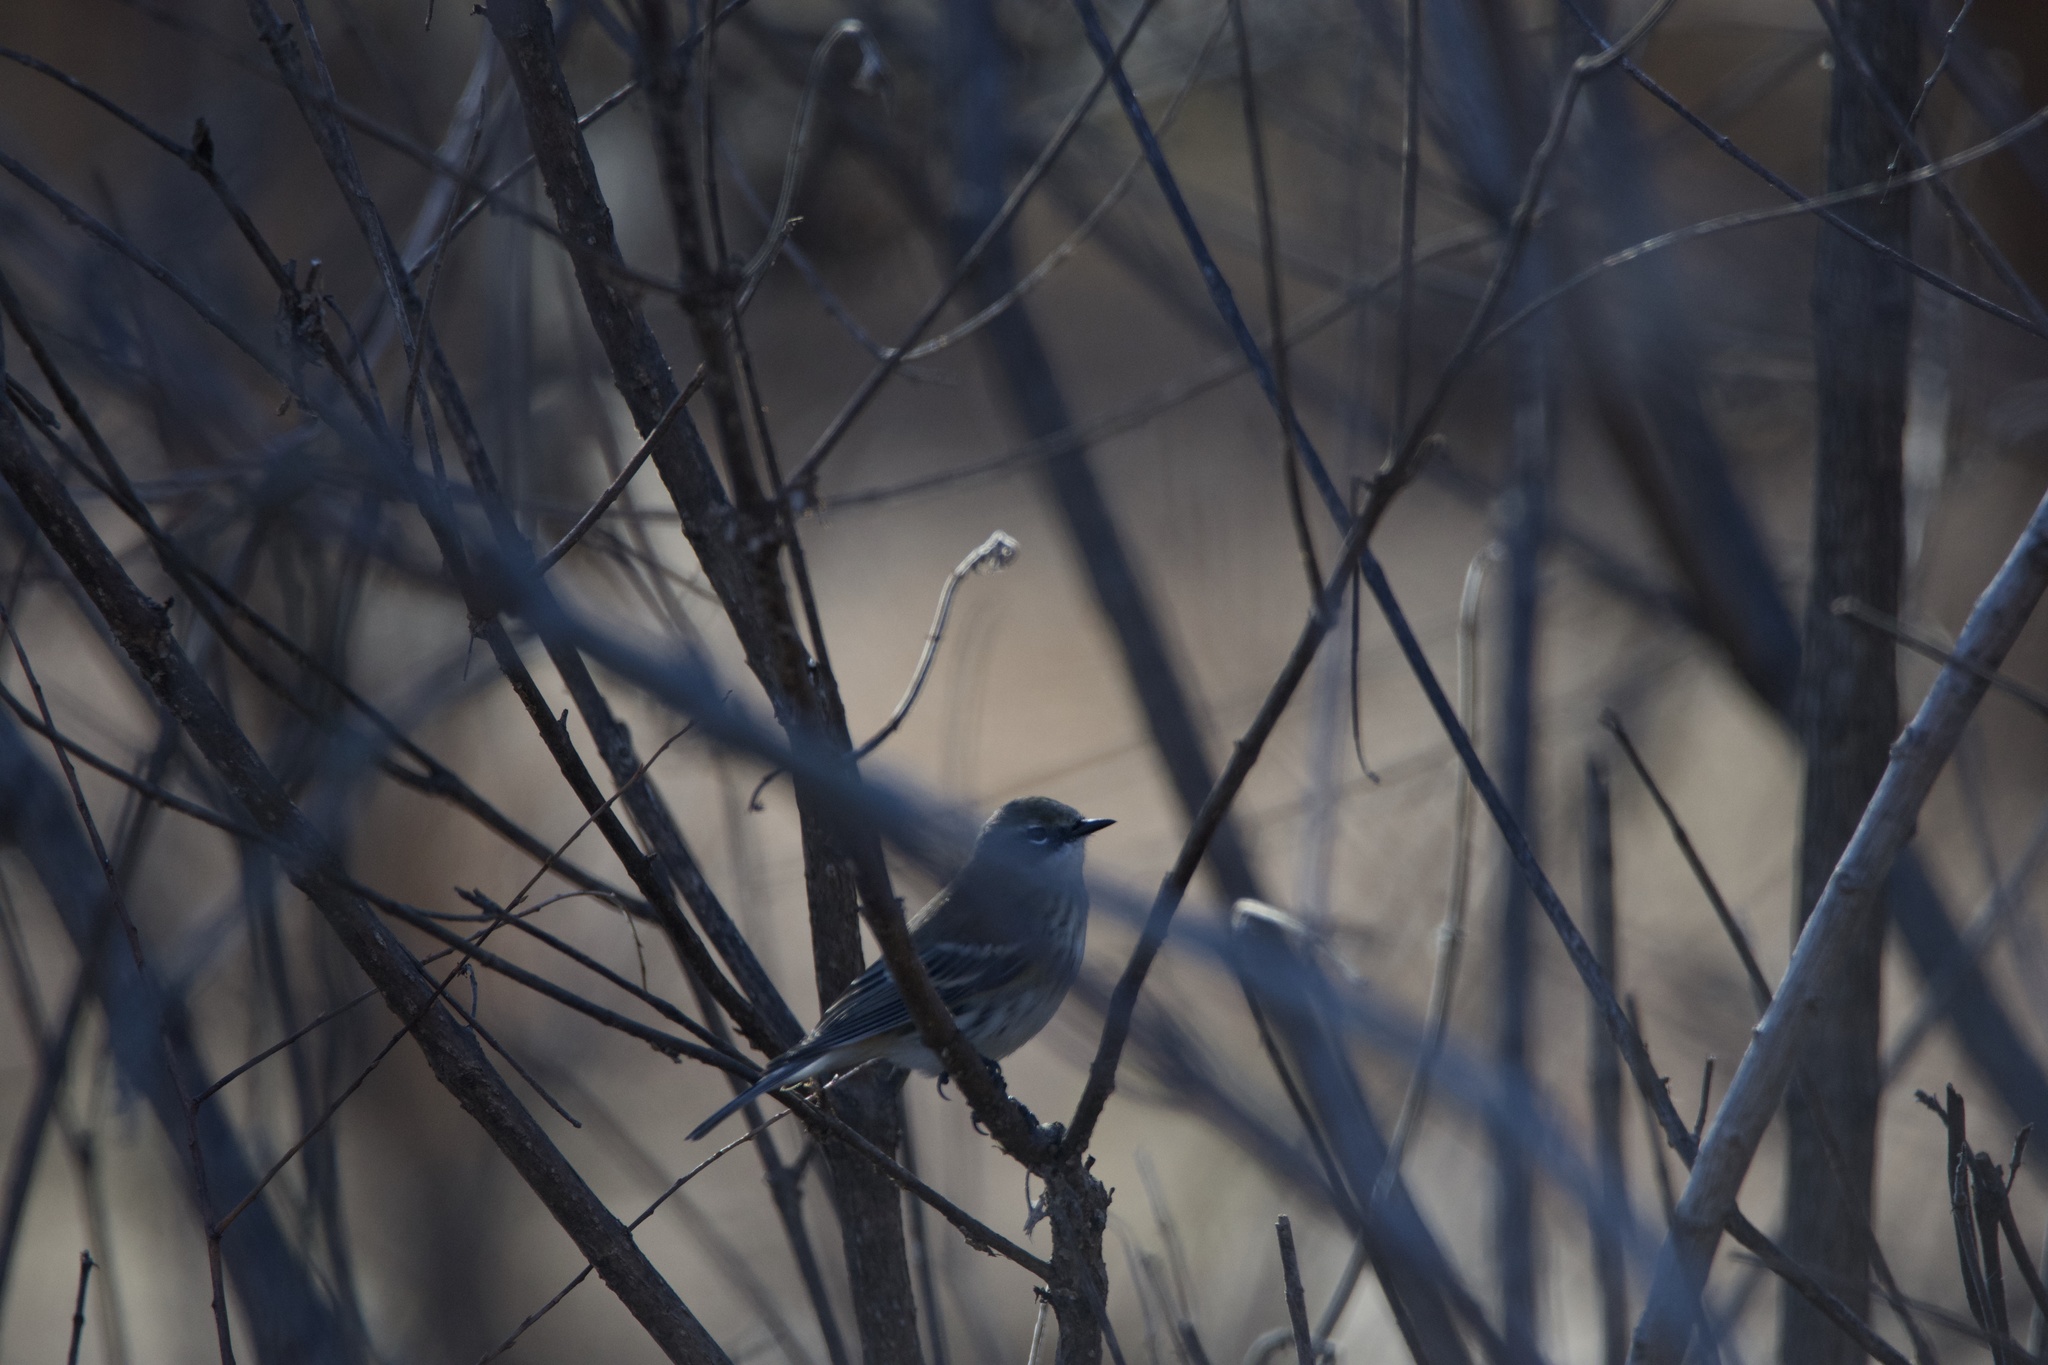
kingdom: Animalia
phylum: Chordata
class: Aves
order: Passeriformes
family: Parulidae
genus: Setophaga
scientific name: Setophaga coronata
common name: Myrtle warbler
